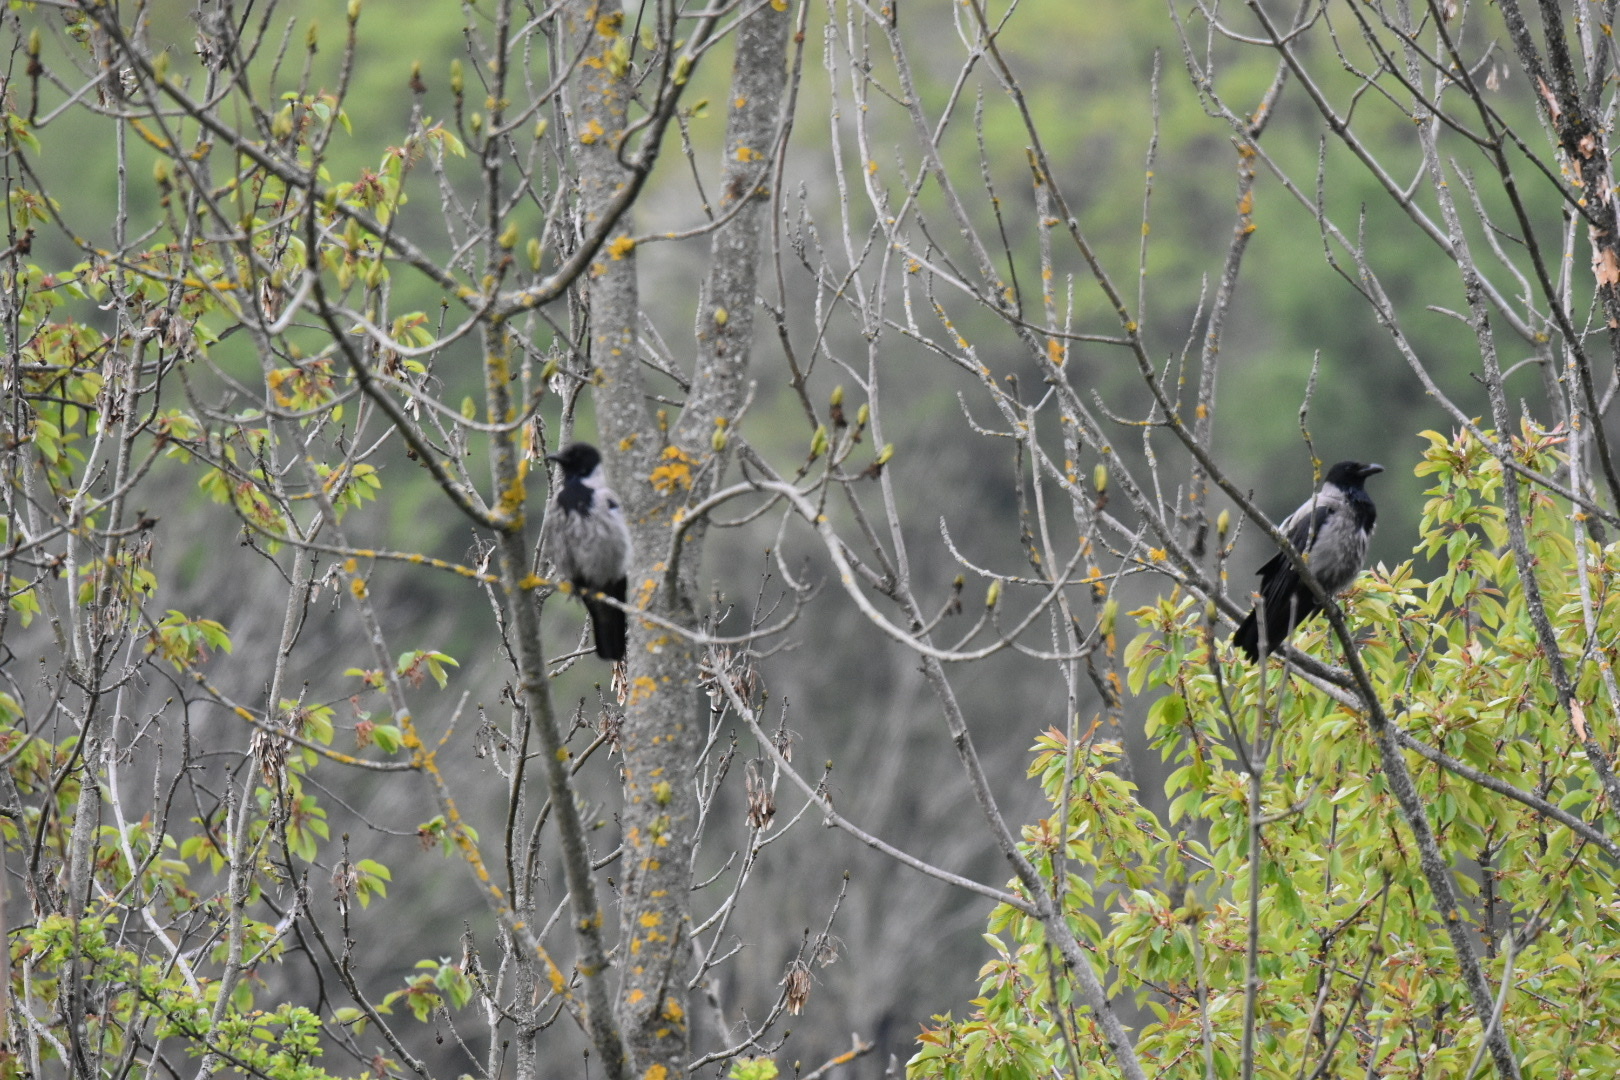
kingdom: Animalia
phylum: Chordata
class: Aves
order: Passeriformes
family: Corvidae
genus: Corvus
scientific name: Corvus cornix
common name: Hooded crow
